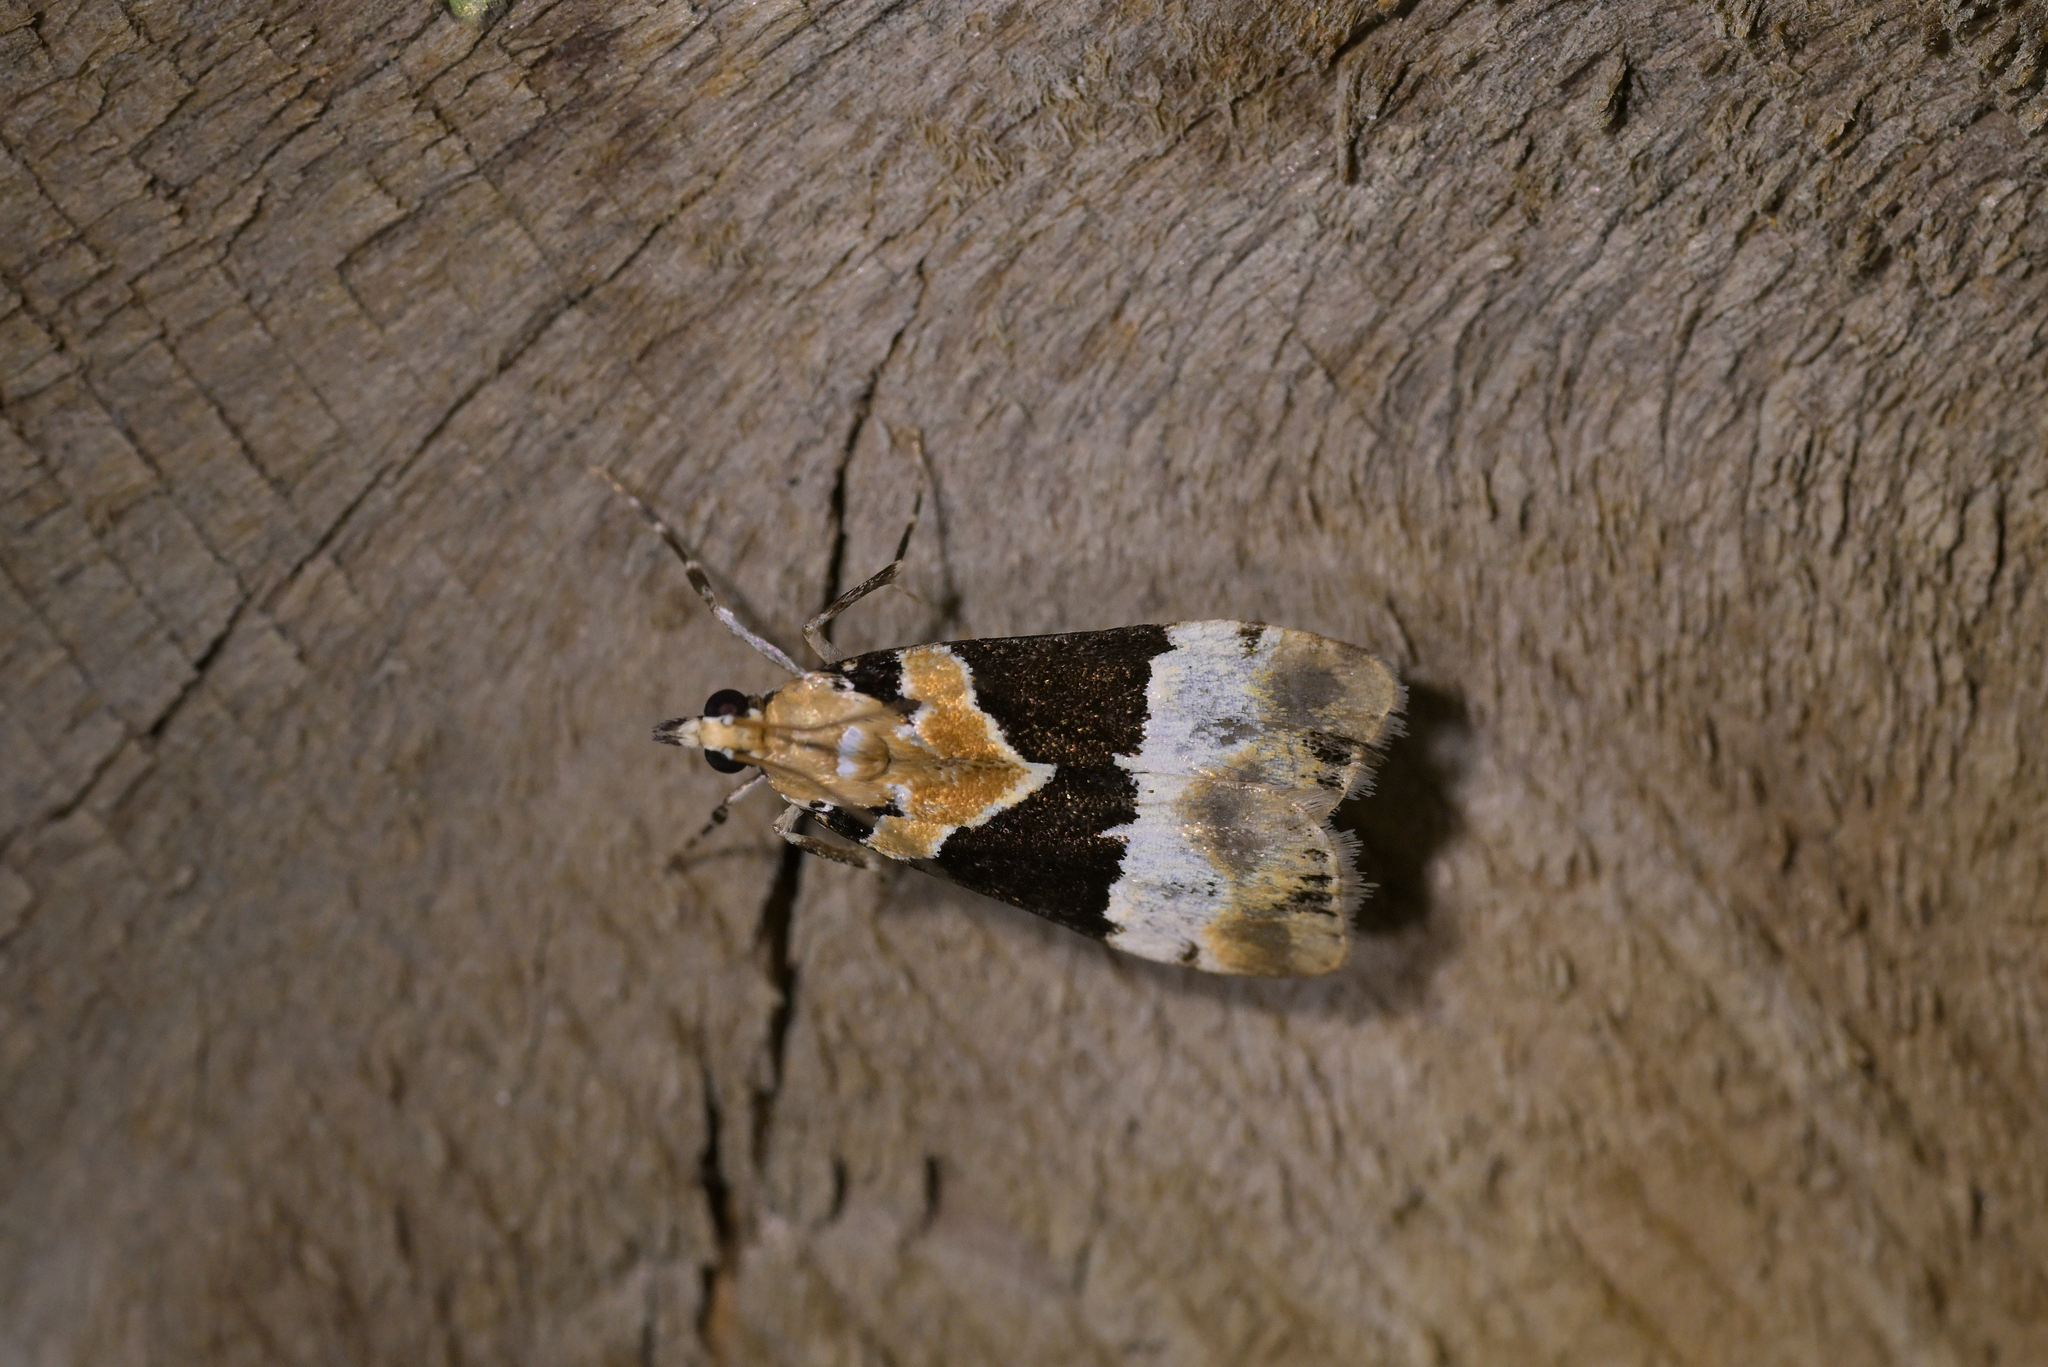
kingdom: Animalia
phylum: Arthropoda
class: Insecta
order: Lepidoptera
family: Crambidae
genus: Eudonia
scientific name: Eudonia aspidota
